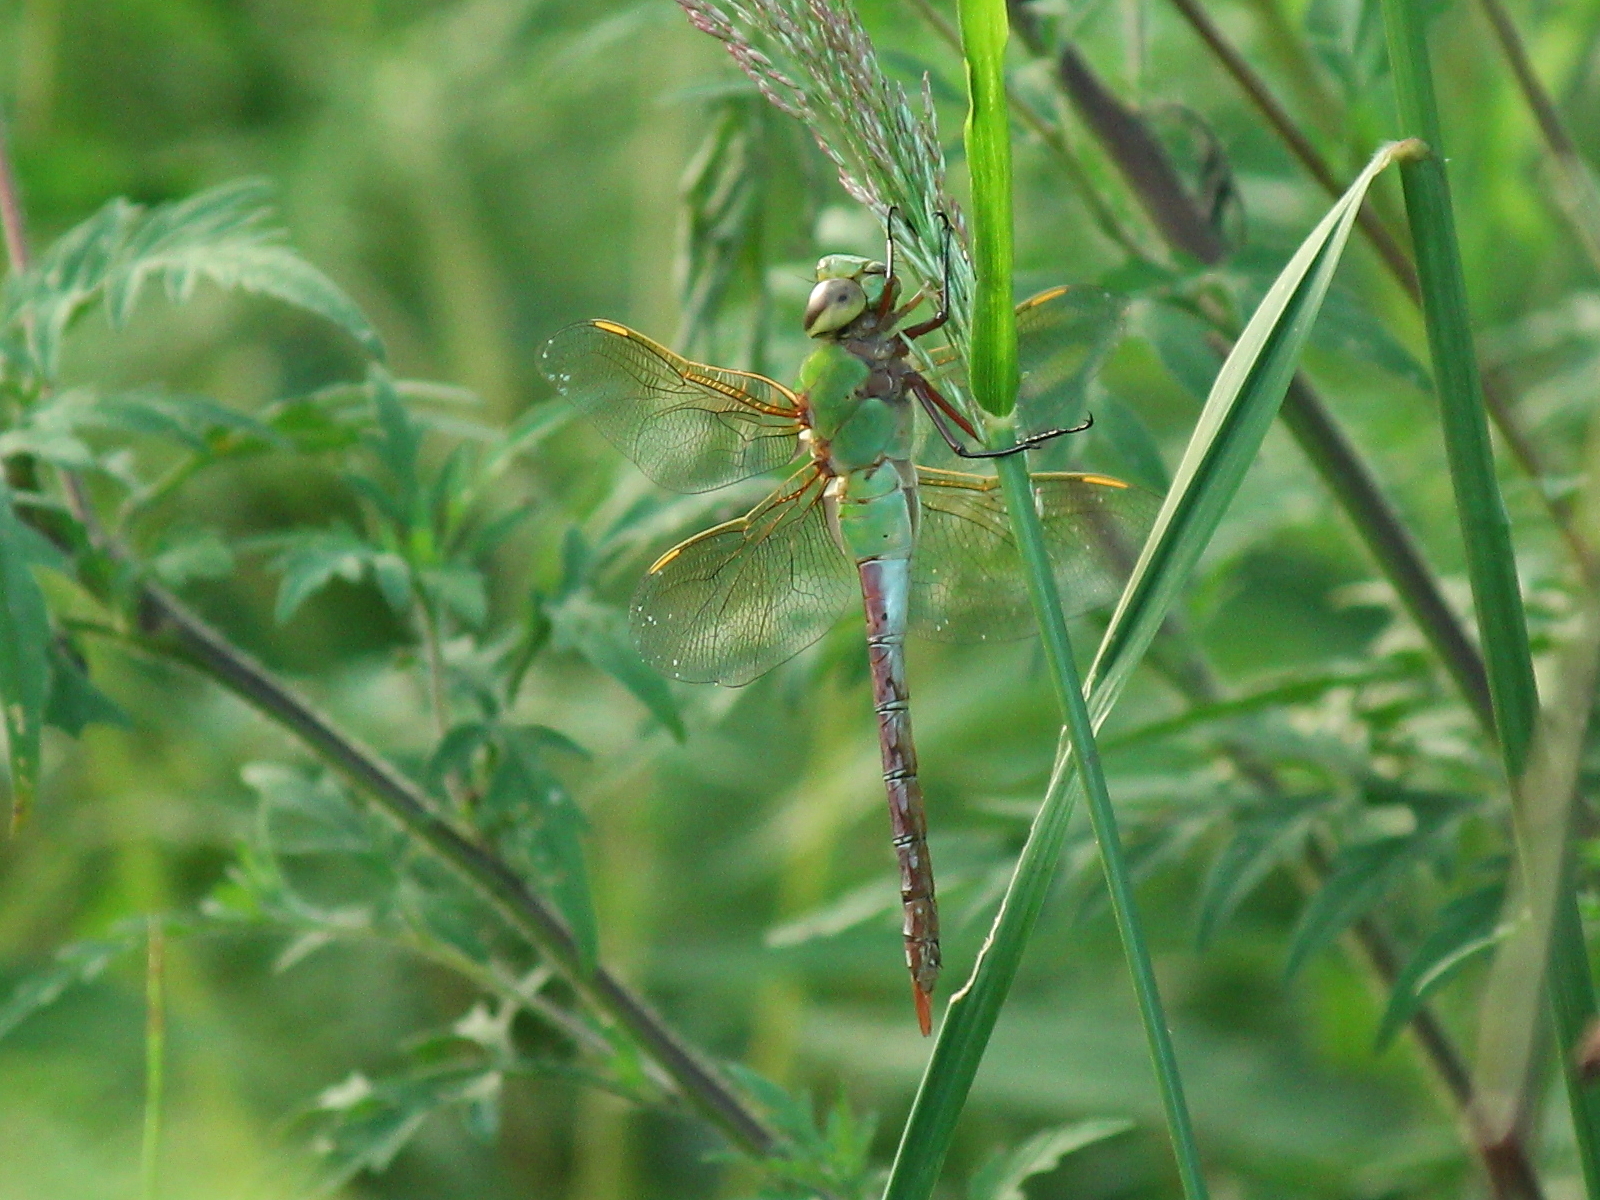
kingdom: Animalia
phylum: Arthropoda
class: Insecta
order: Odonata
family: Aeshnidae
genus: Anax
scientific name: Anax junius
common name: Common green darner
